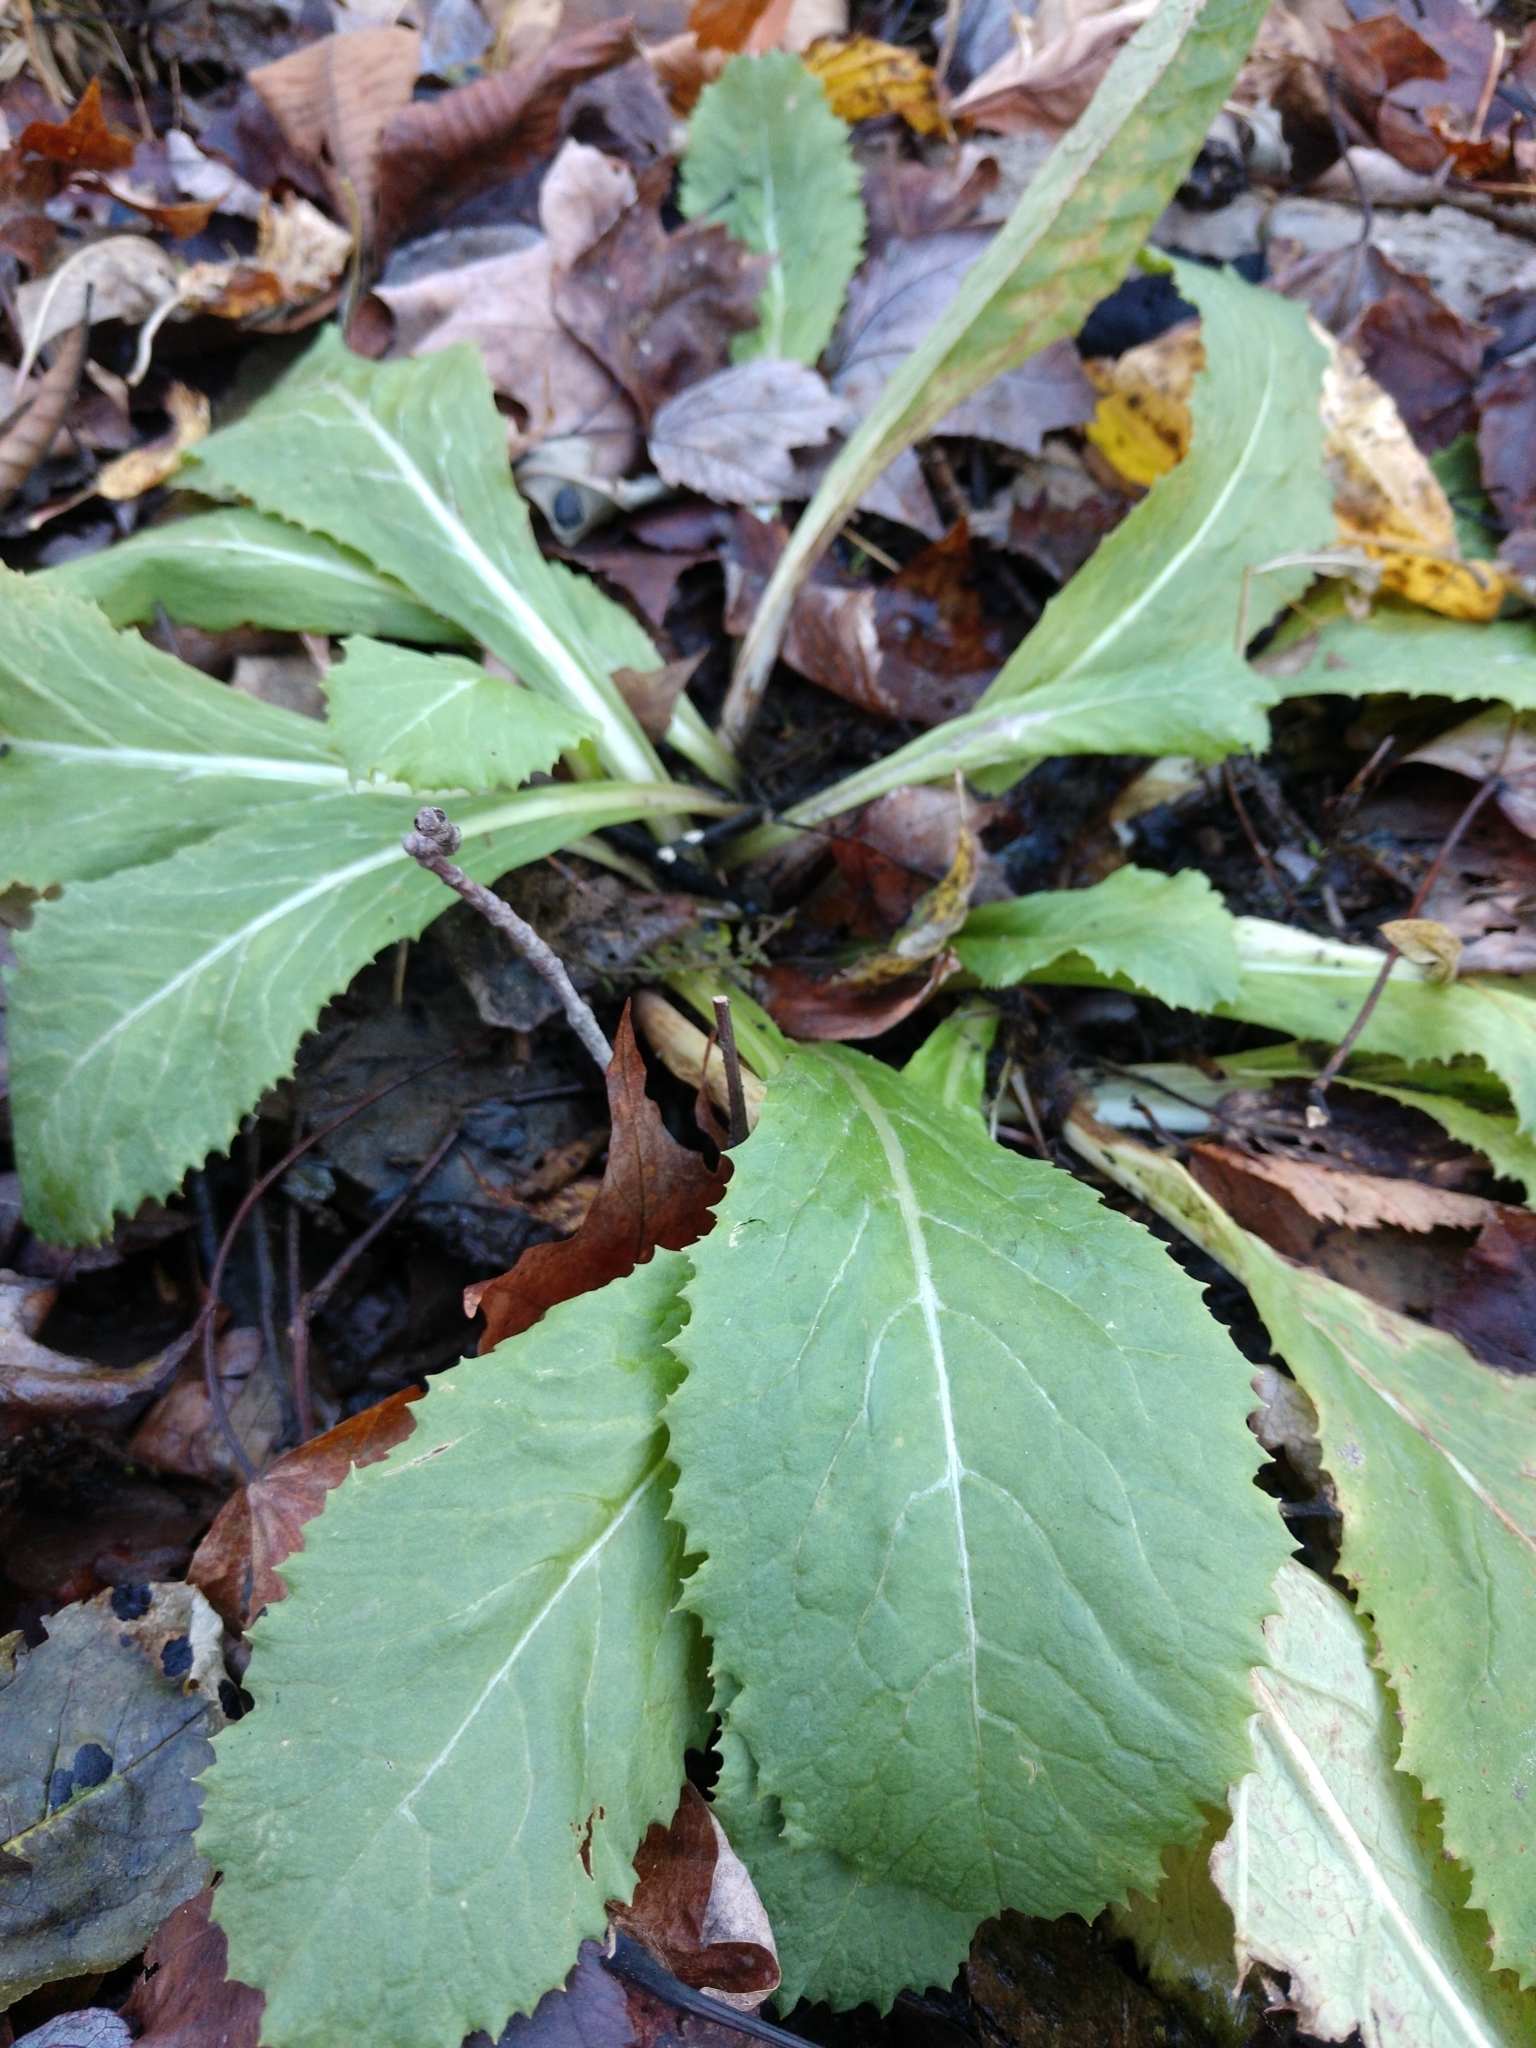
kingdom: Plantae
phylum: Tracheophyta
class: Magnoliopsida
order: Ericales
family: Primulaceae
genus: Primula
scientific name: Primula japonica
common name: Japanese cowslip
